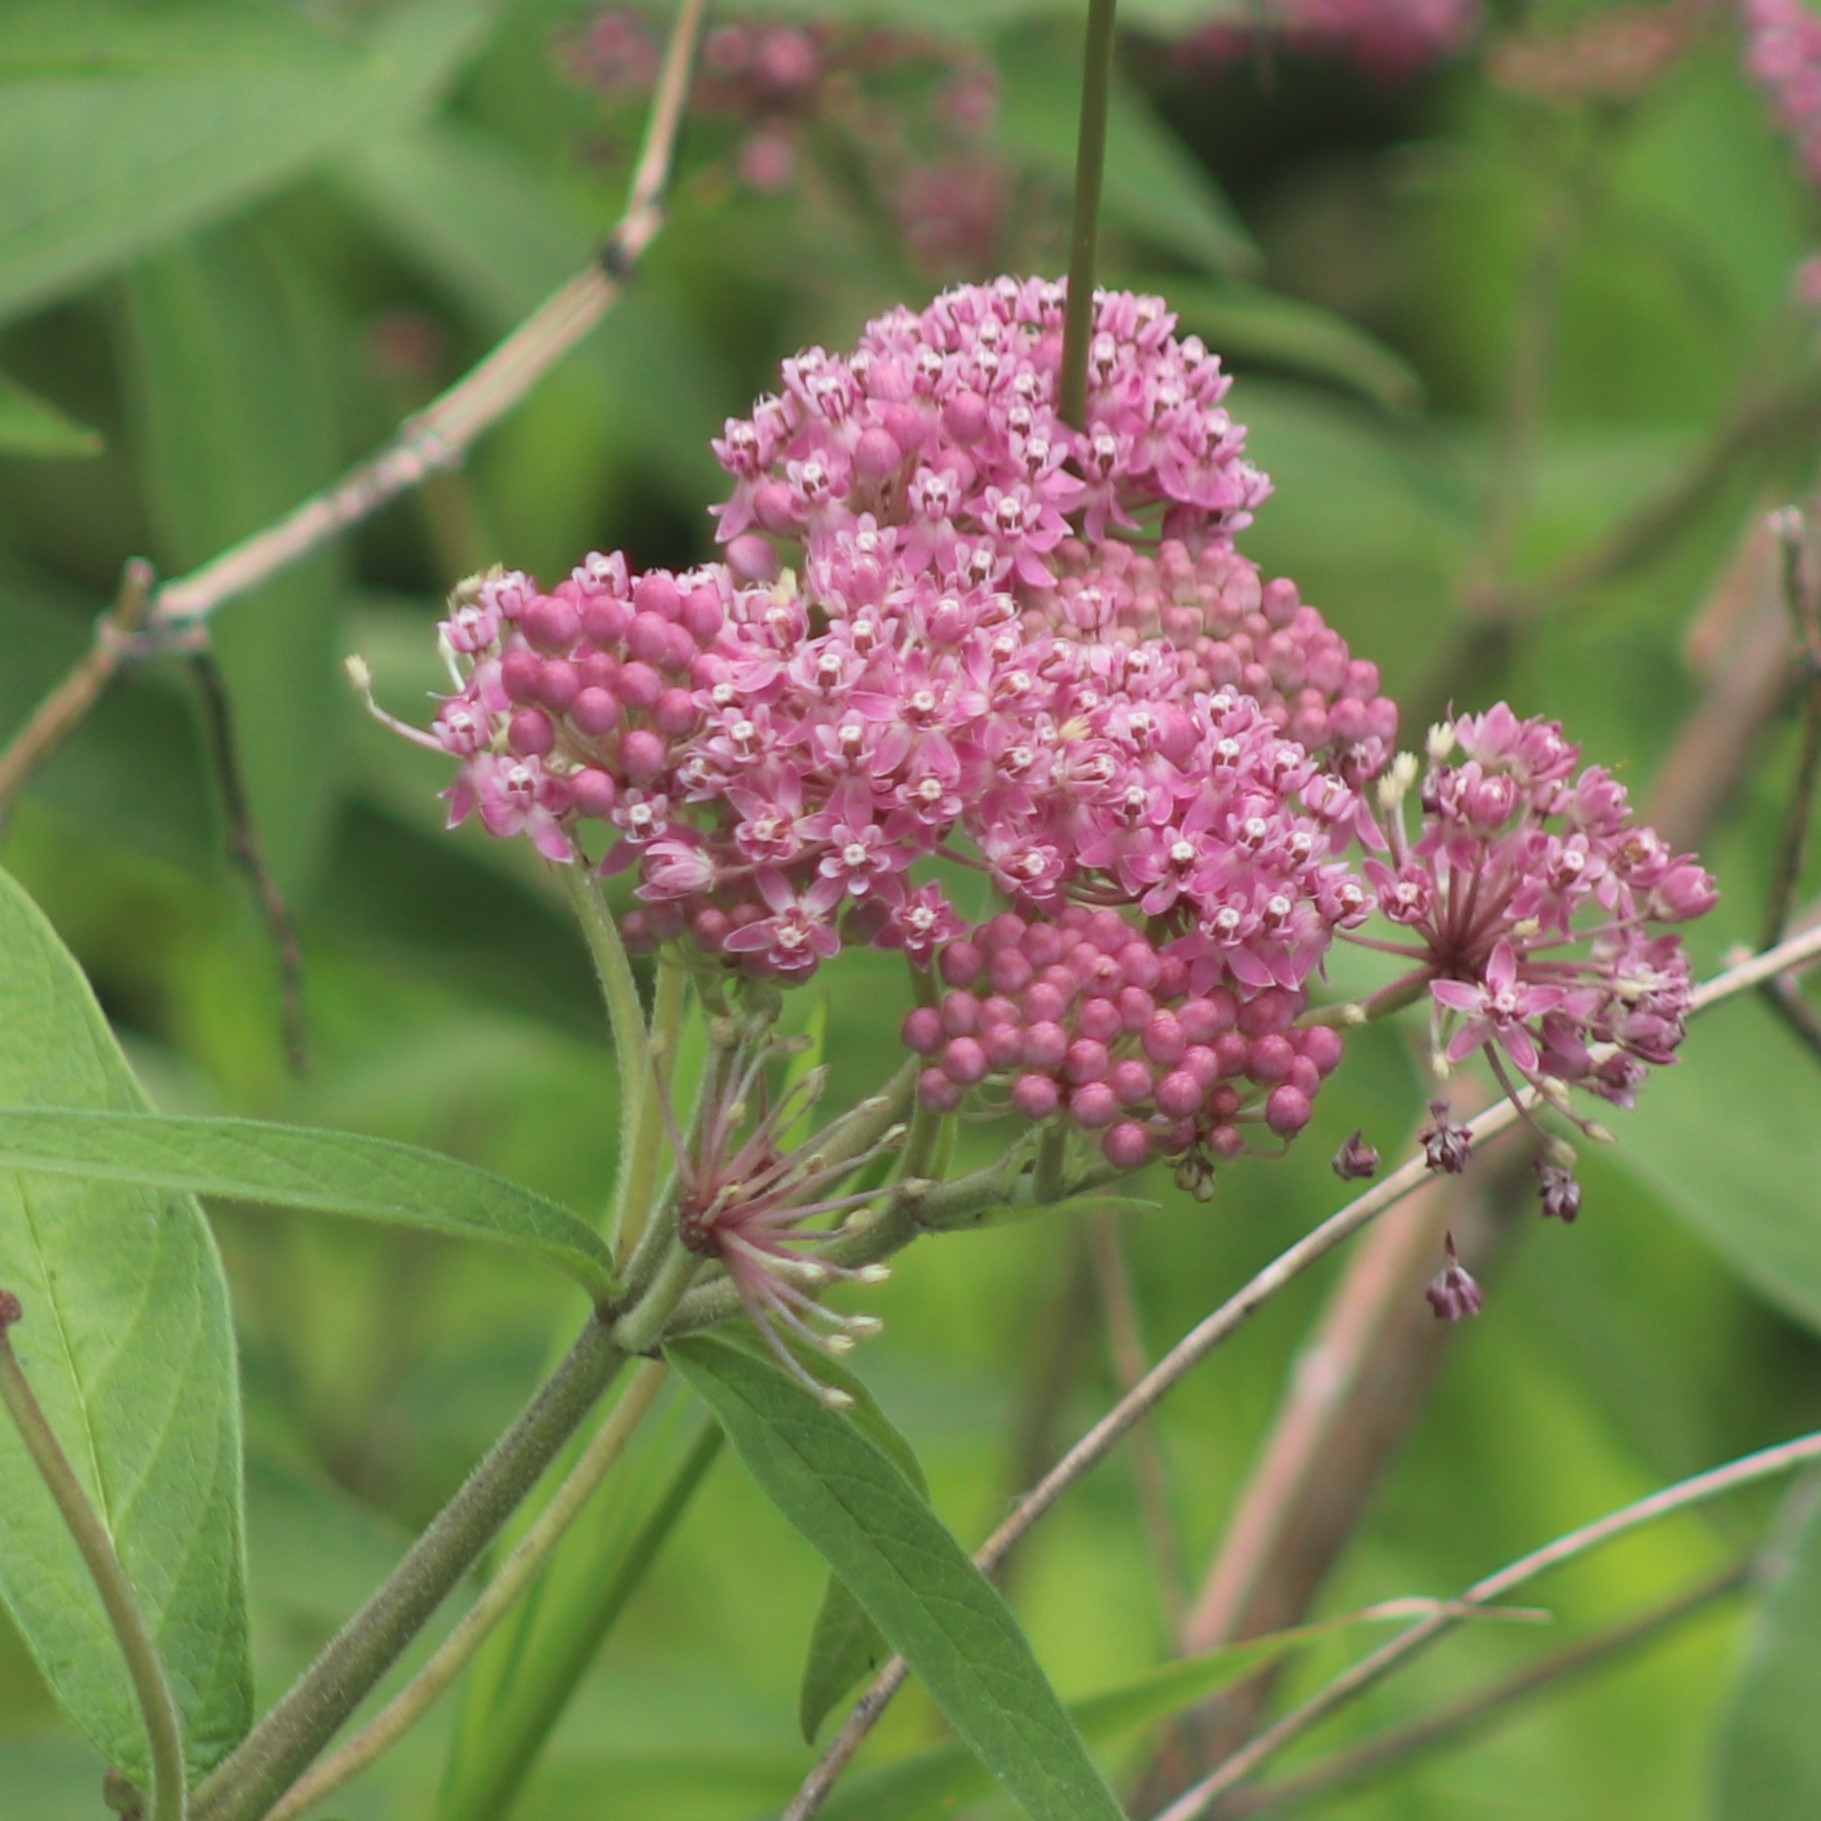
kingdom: Plantae
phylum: Tracheophyta
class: Magnoliopsida
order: Gentianales
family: Apocynaceae
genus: Asclepias
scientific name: Asclepias incarnata
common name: Swamp milkweed
